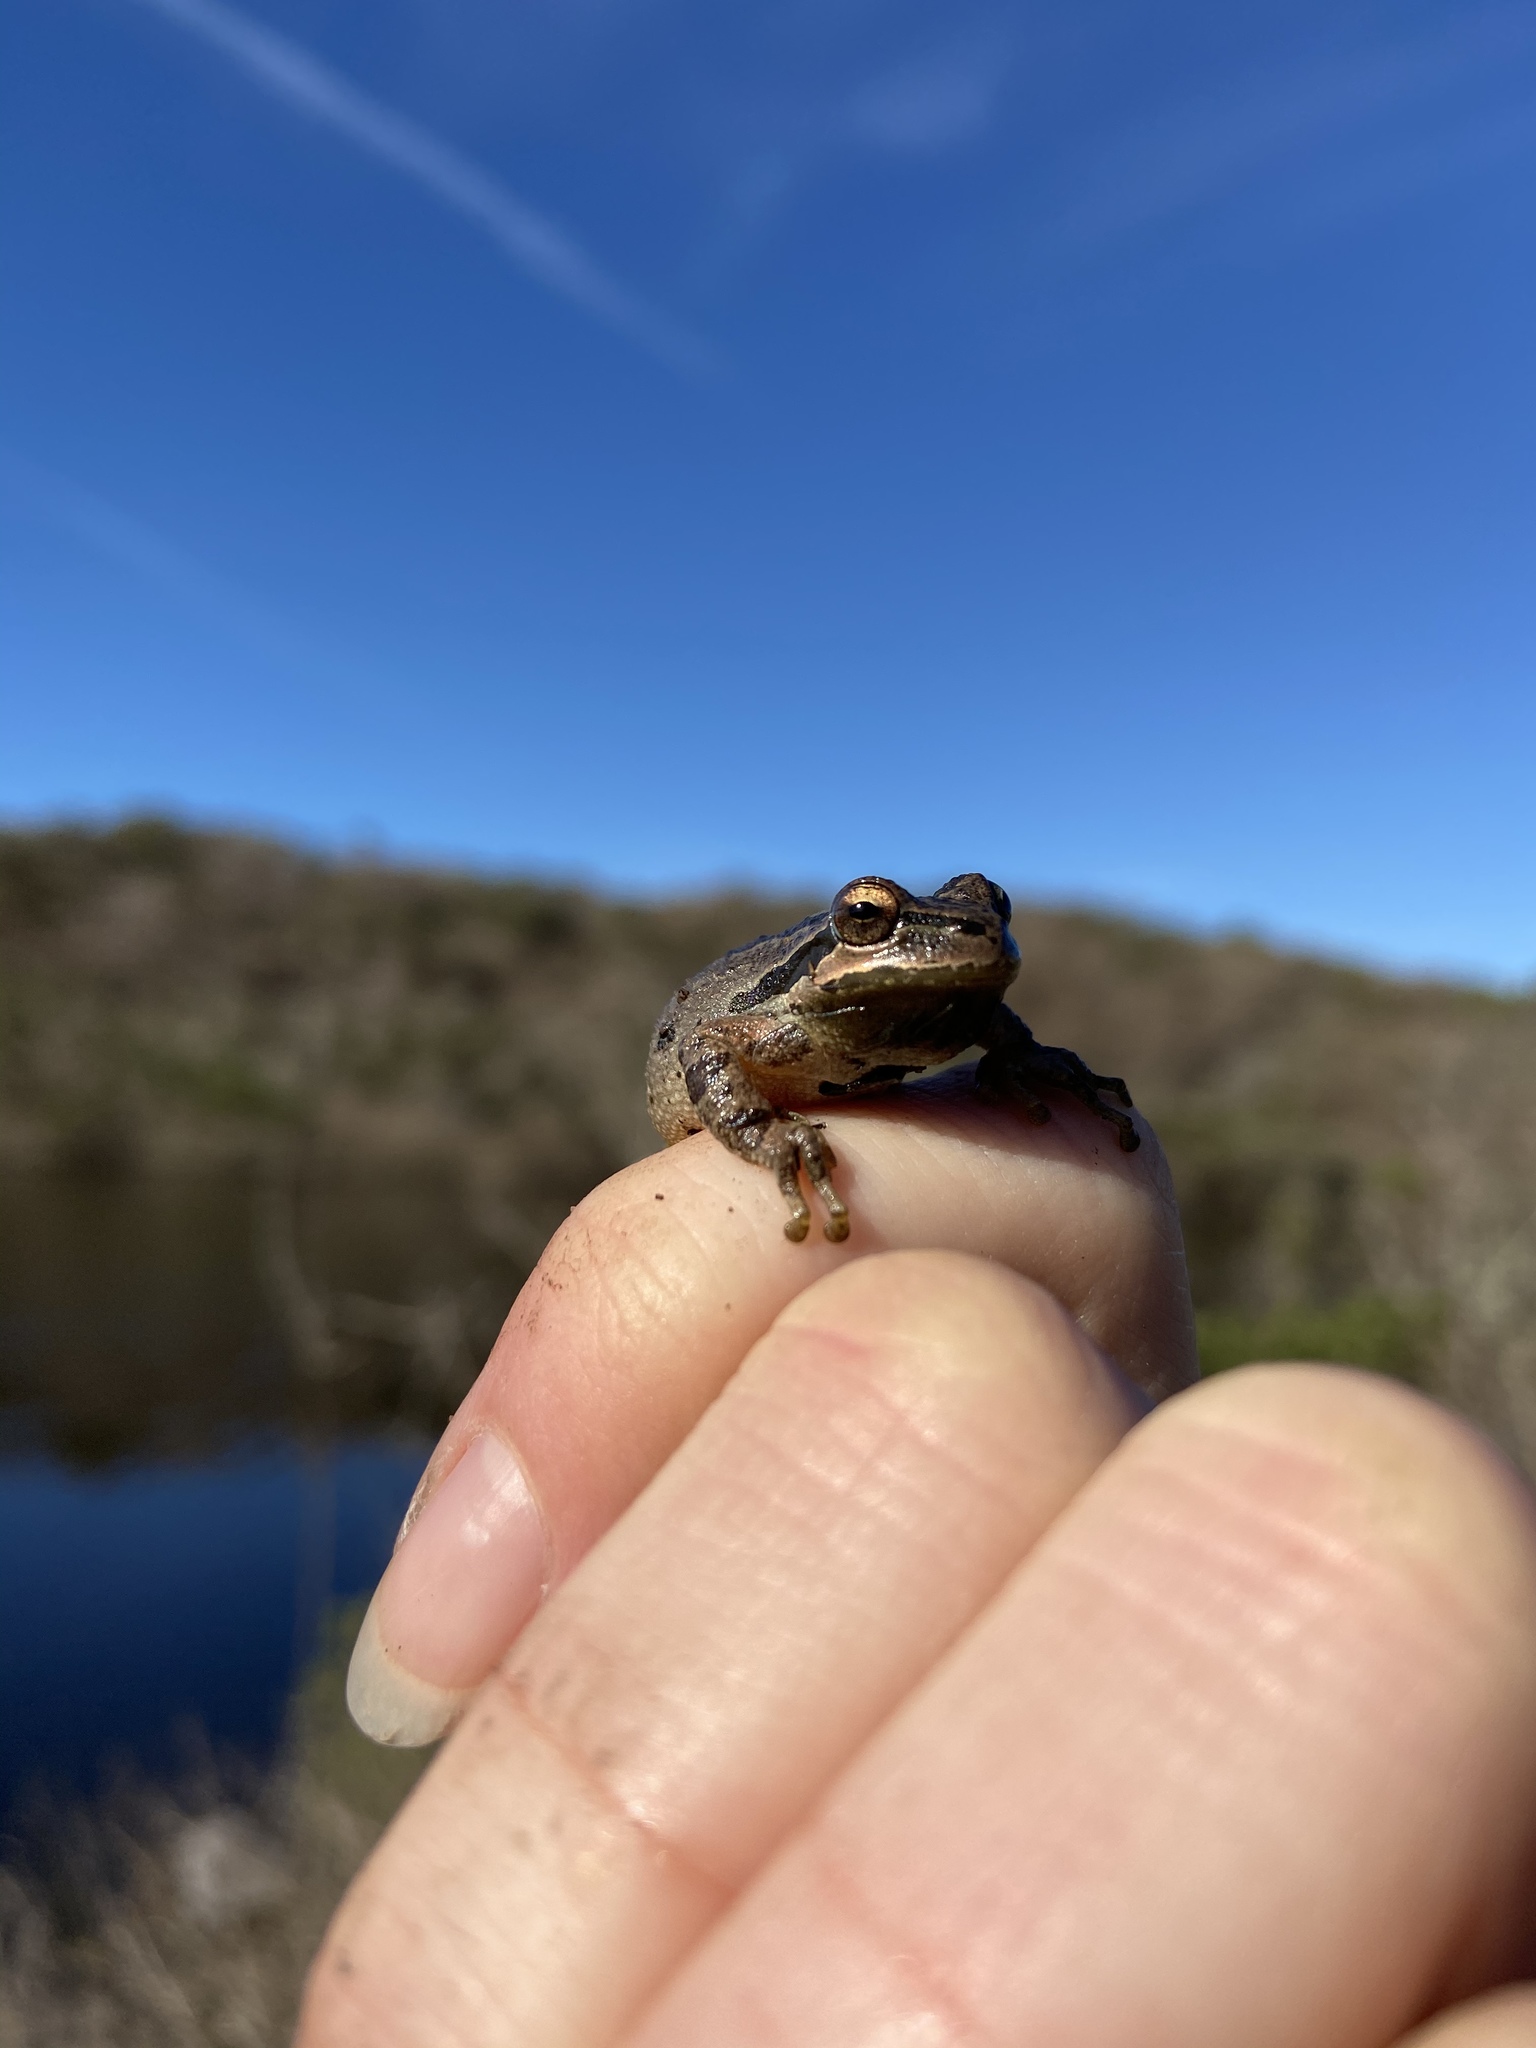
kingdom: Animalia
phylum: Chordata
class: Amphibia
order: Anura
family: Hylidae
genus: Pseudacris
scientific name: Pseudacris regilla
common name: Pacific chorus frog
